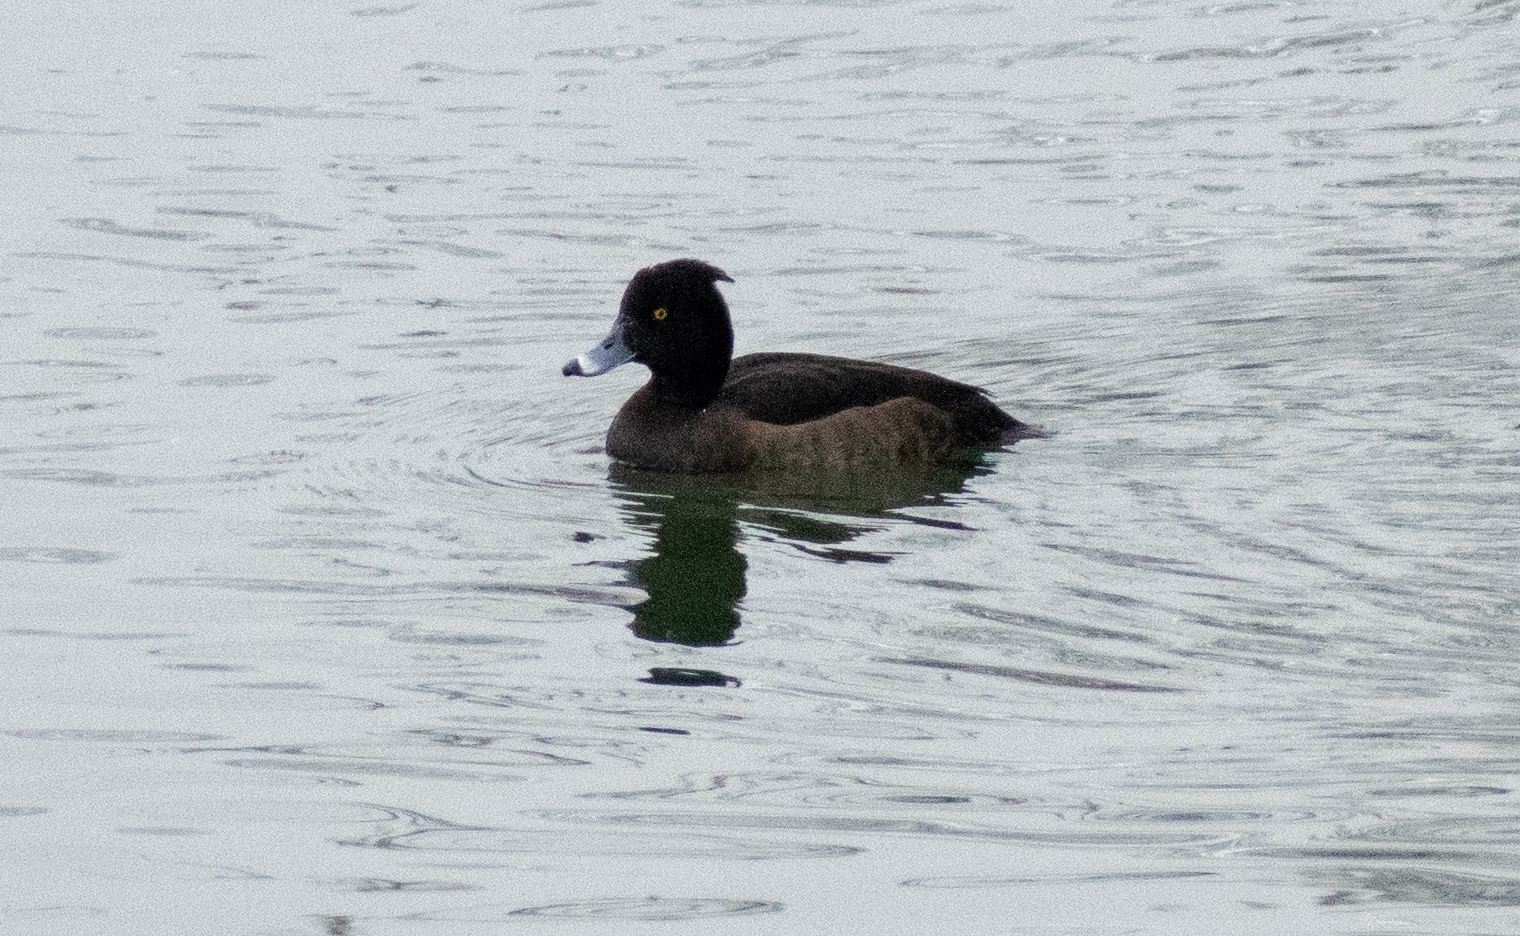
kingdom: Animalia
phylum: Chordata
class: Aves
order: Anseriformes
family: Anatidae
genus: Aythya
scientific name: Aythya fuligula
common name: Tufted duck
